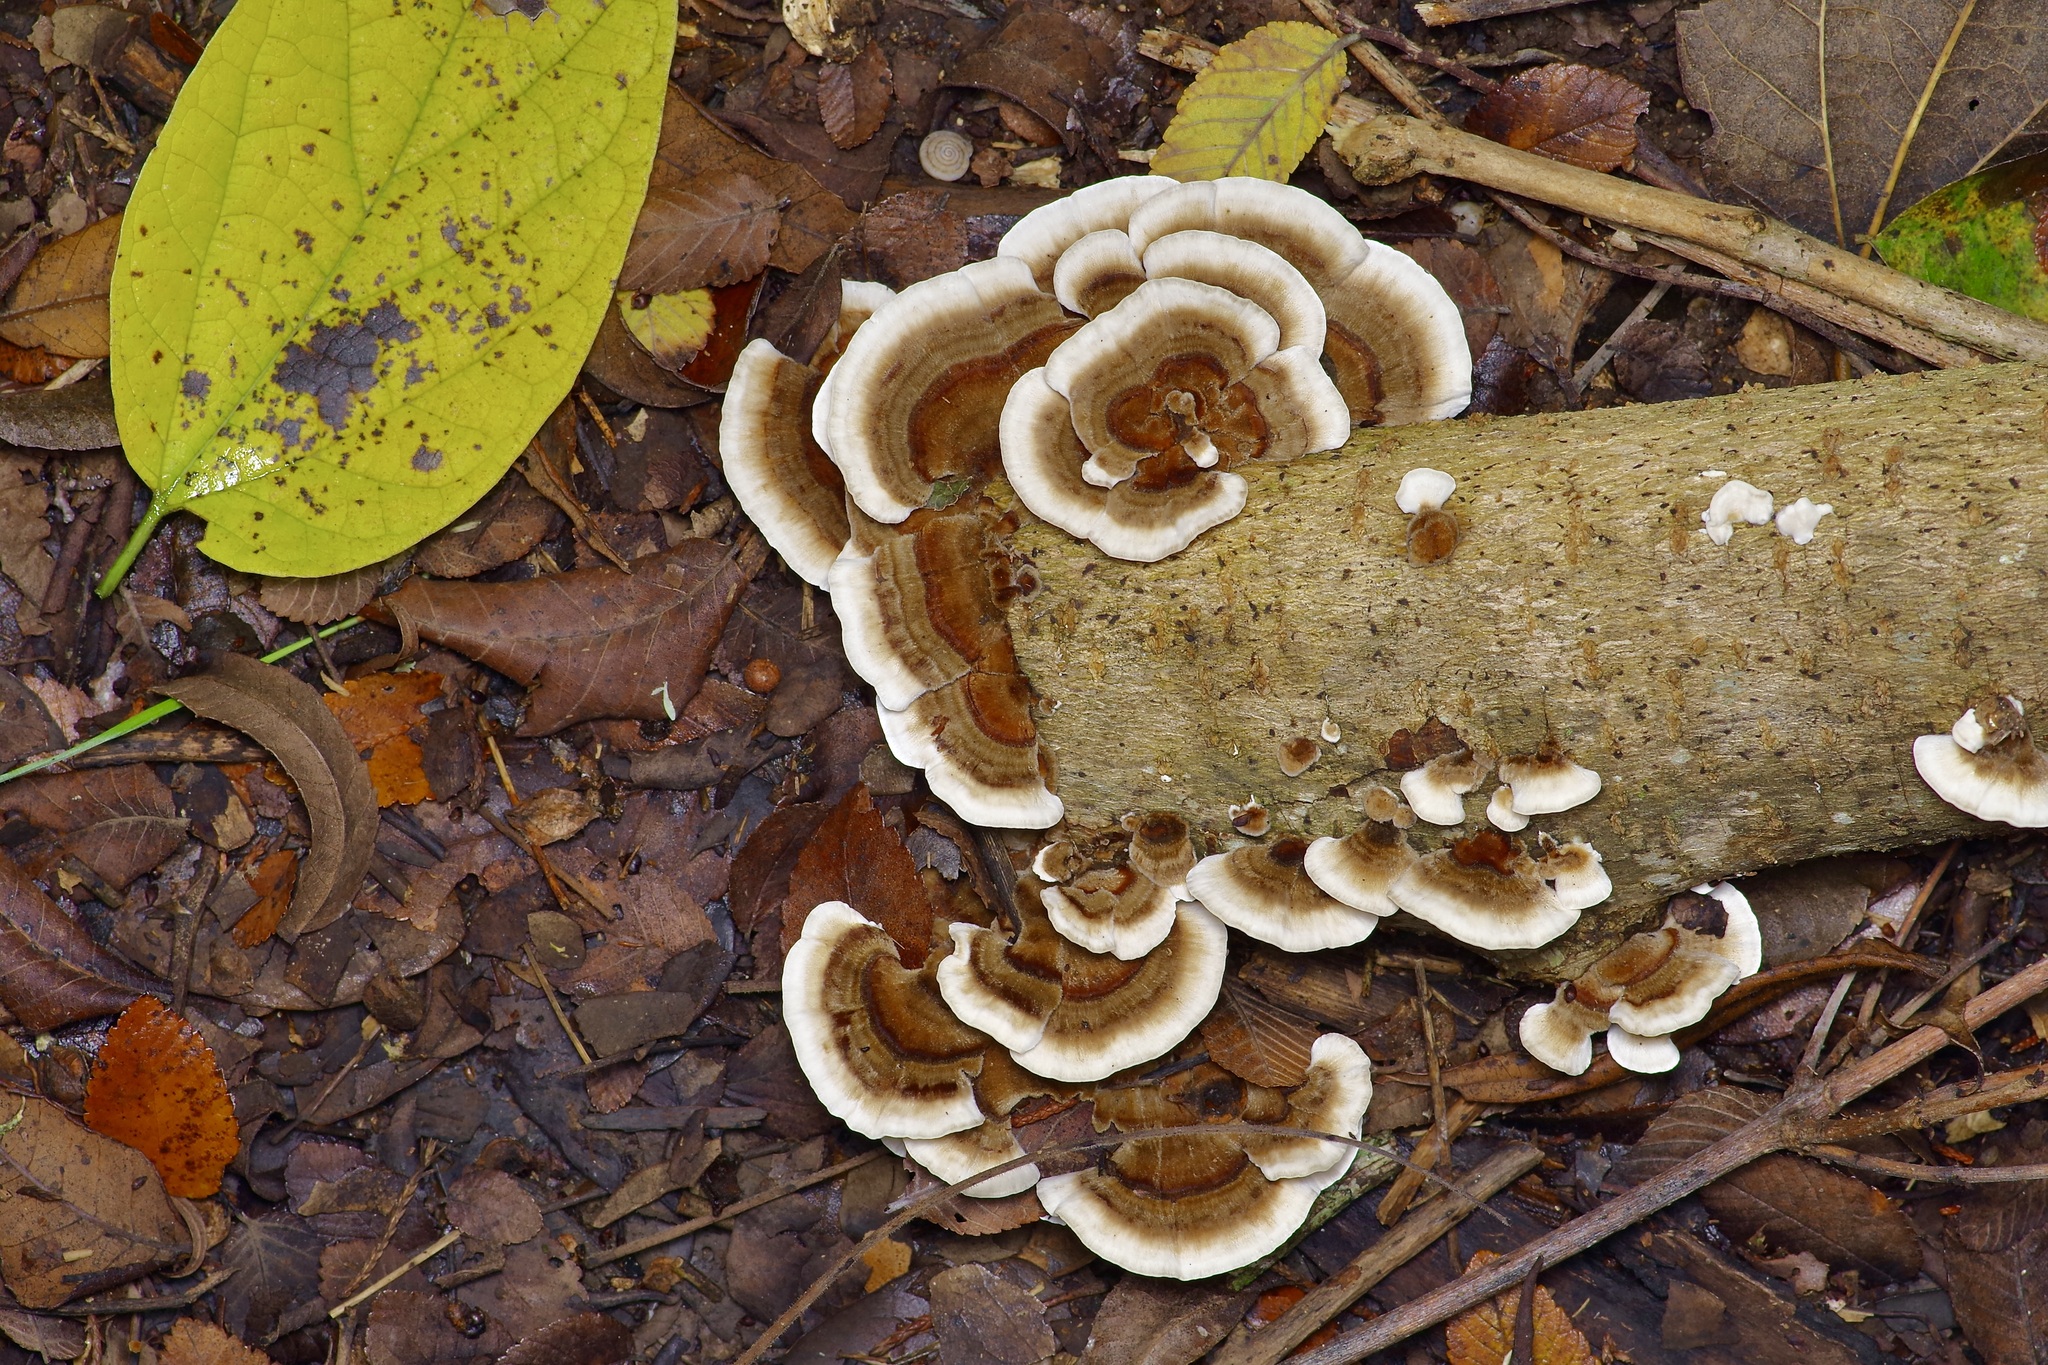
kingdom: Fungi
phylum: Basidiomycota
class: Agaricomycetes
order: Polyporales
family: Polyporaceae
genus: Trametes
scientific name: Trametes versicolor
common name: Turkeytail
